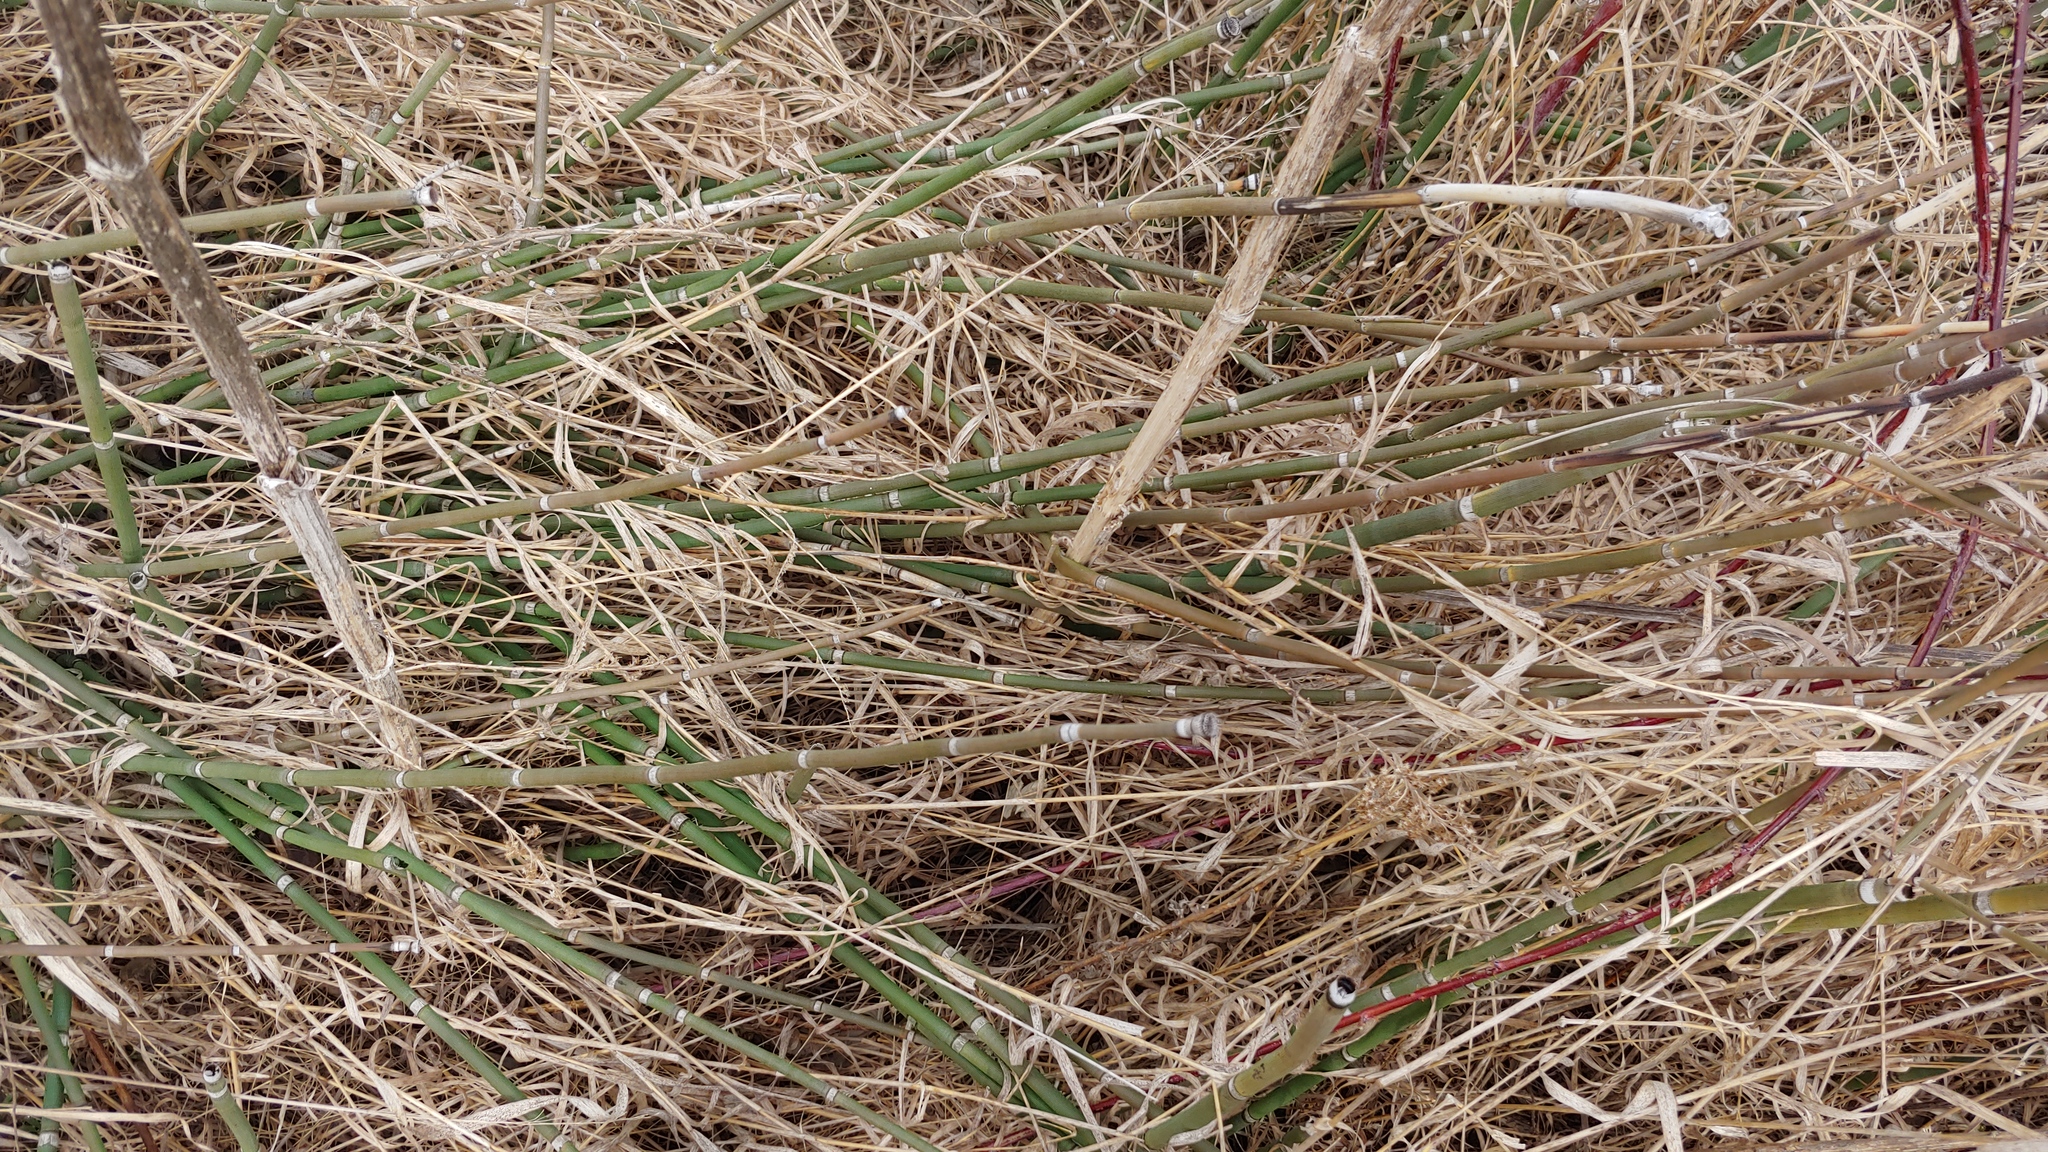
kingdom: Plantae
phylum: Tracheophyta
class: Polypodiopsida
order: Equisetales
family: Equisetaceae
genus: Equisetum
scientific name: Equisetum praealtum
